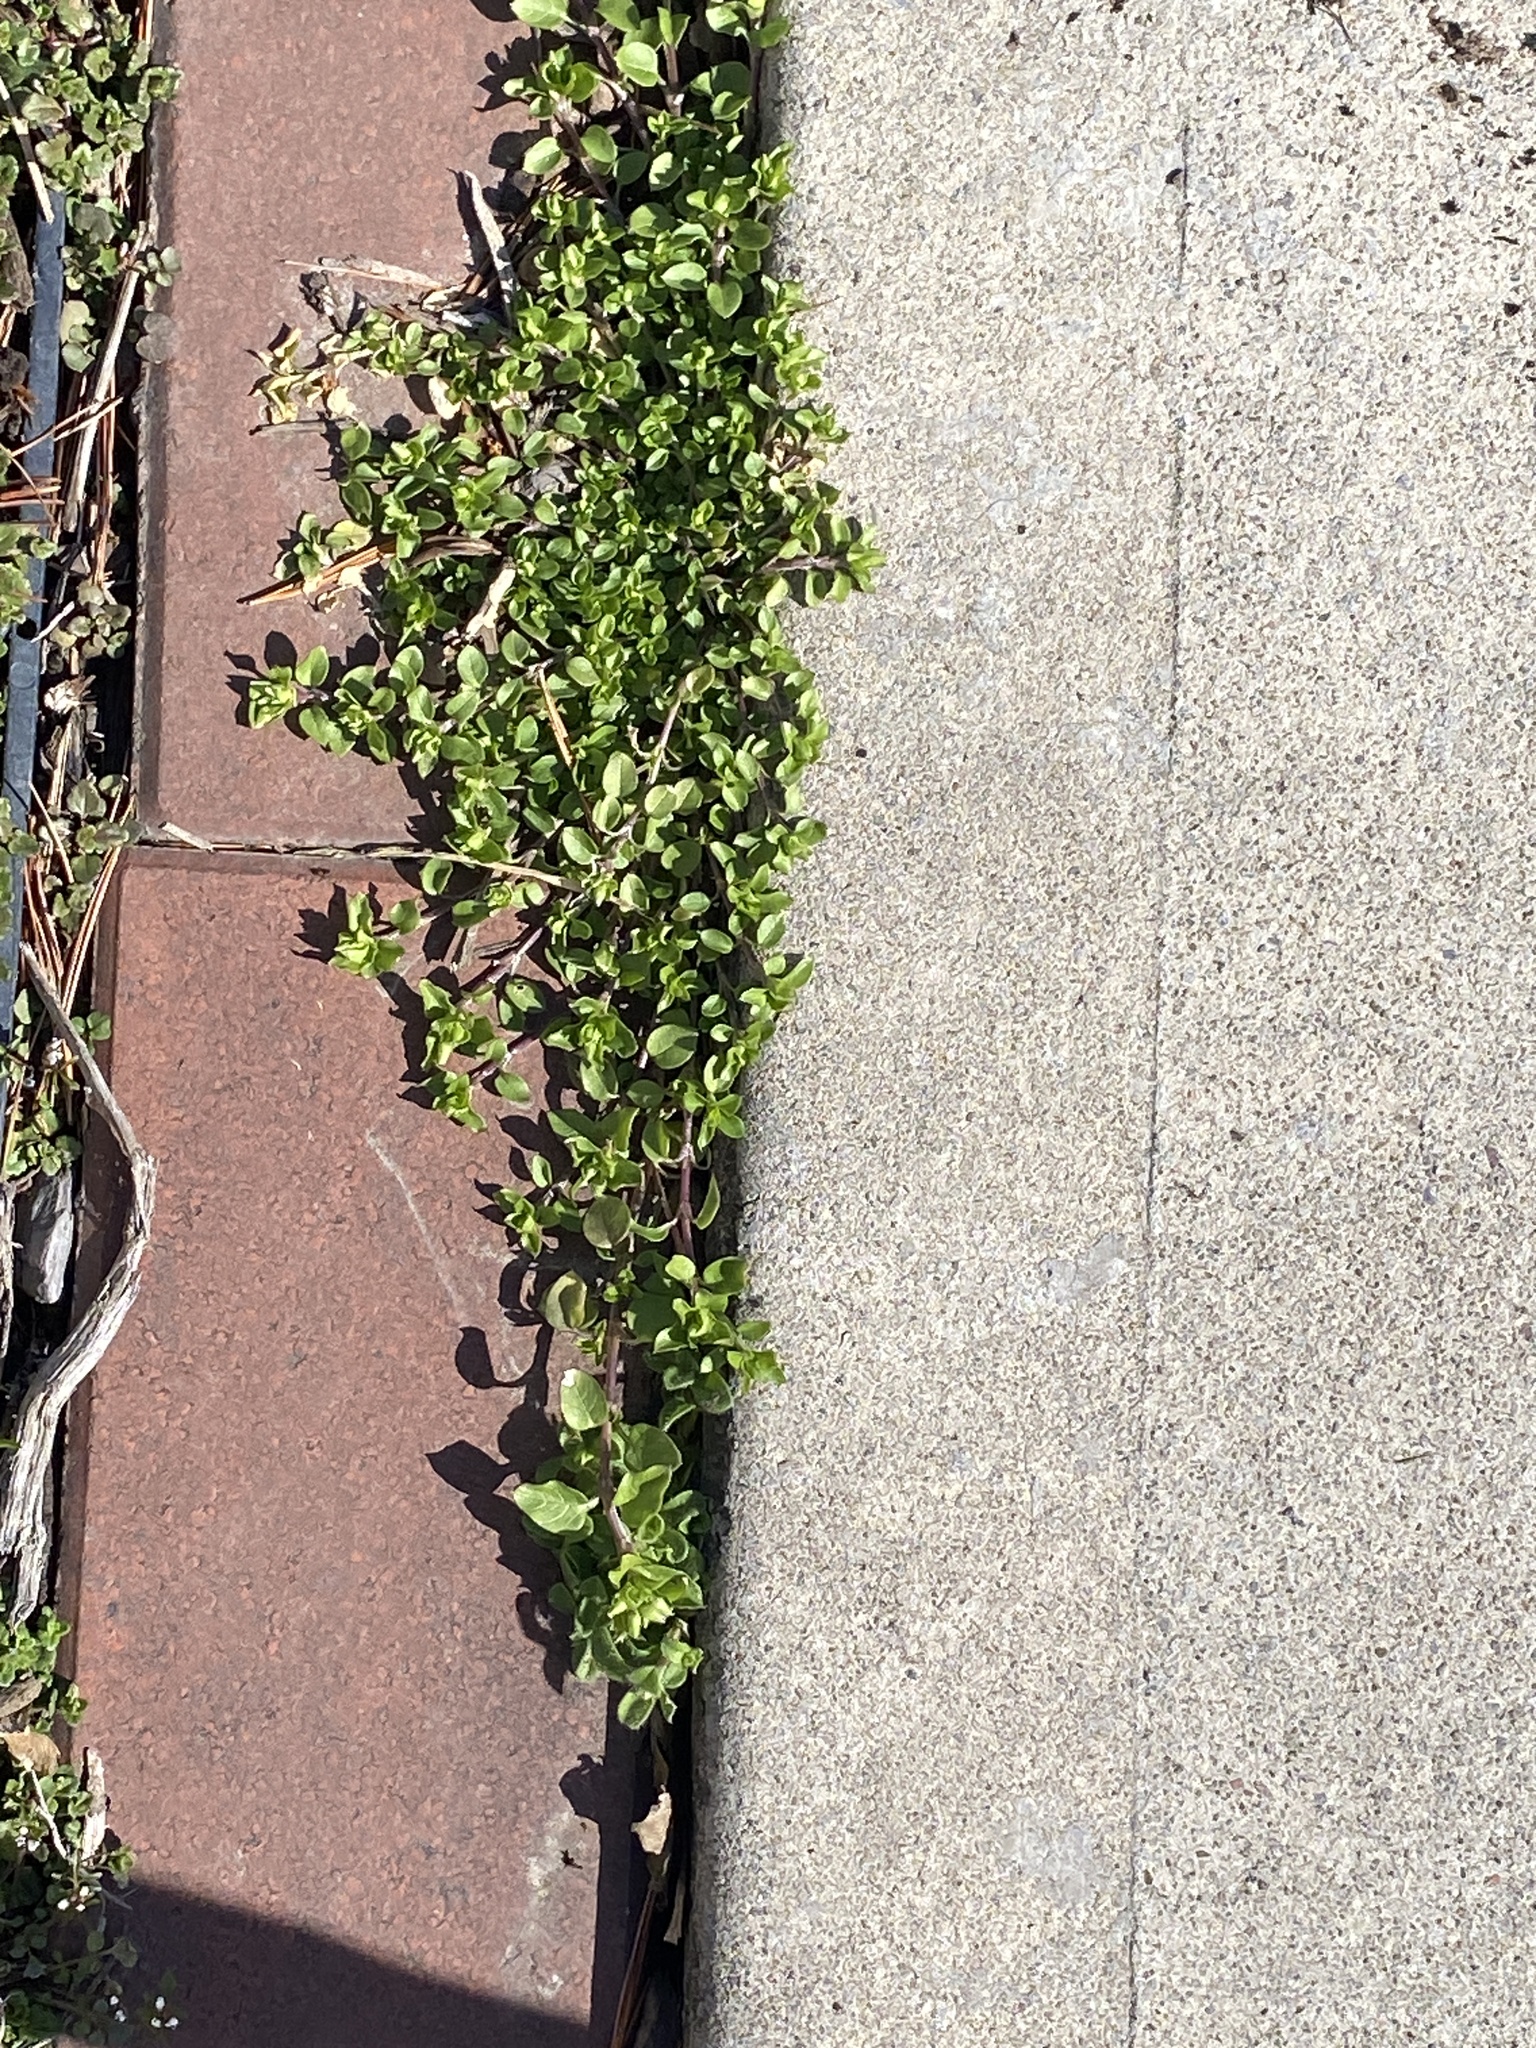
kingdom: Plantae
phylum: Tracheophyta
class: Magnoliopsida
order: Caryophyllales
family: Caryophyllaceae
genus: Stellaria
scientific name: Stellaria media
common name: Common chickweed
